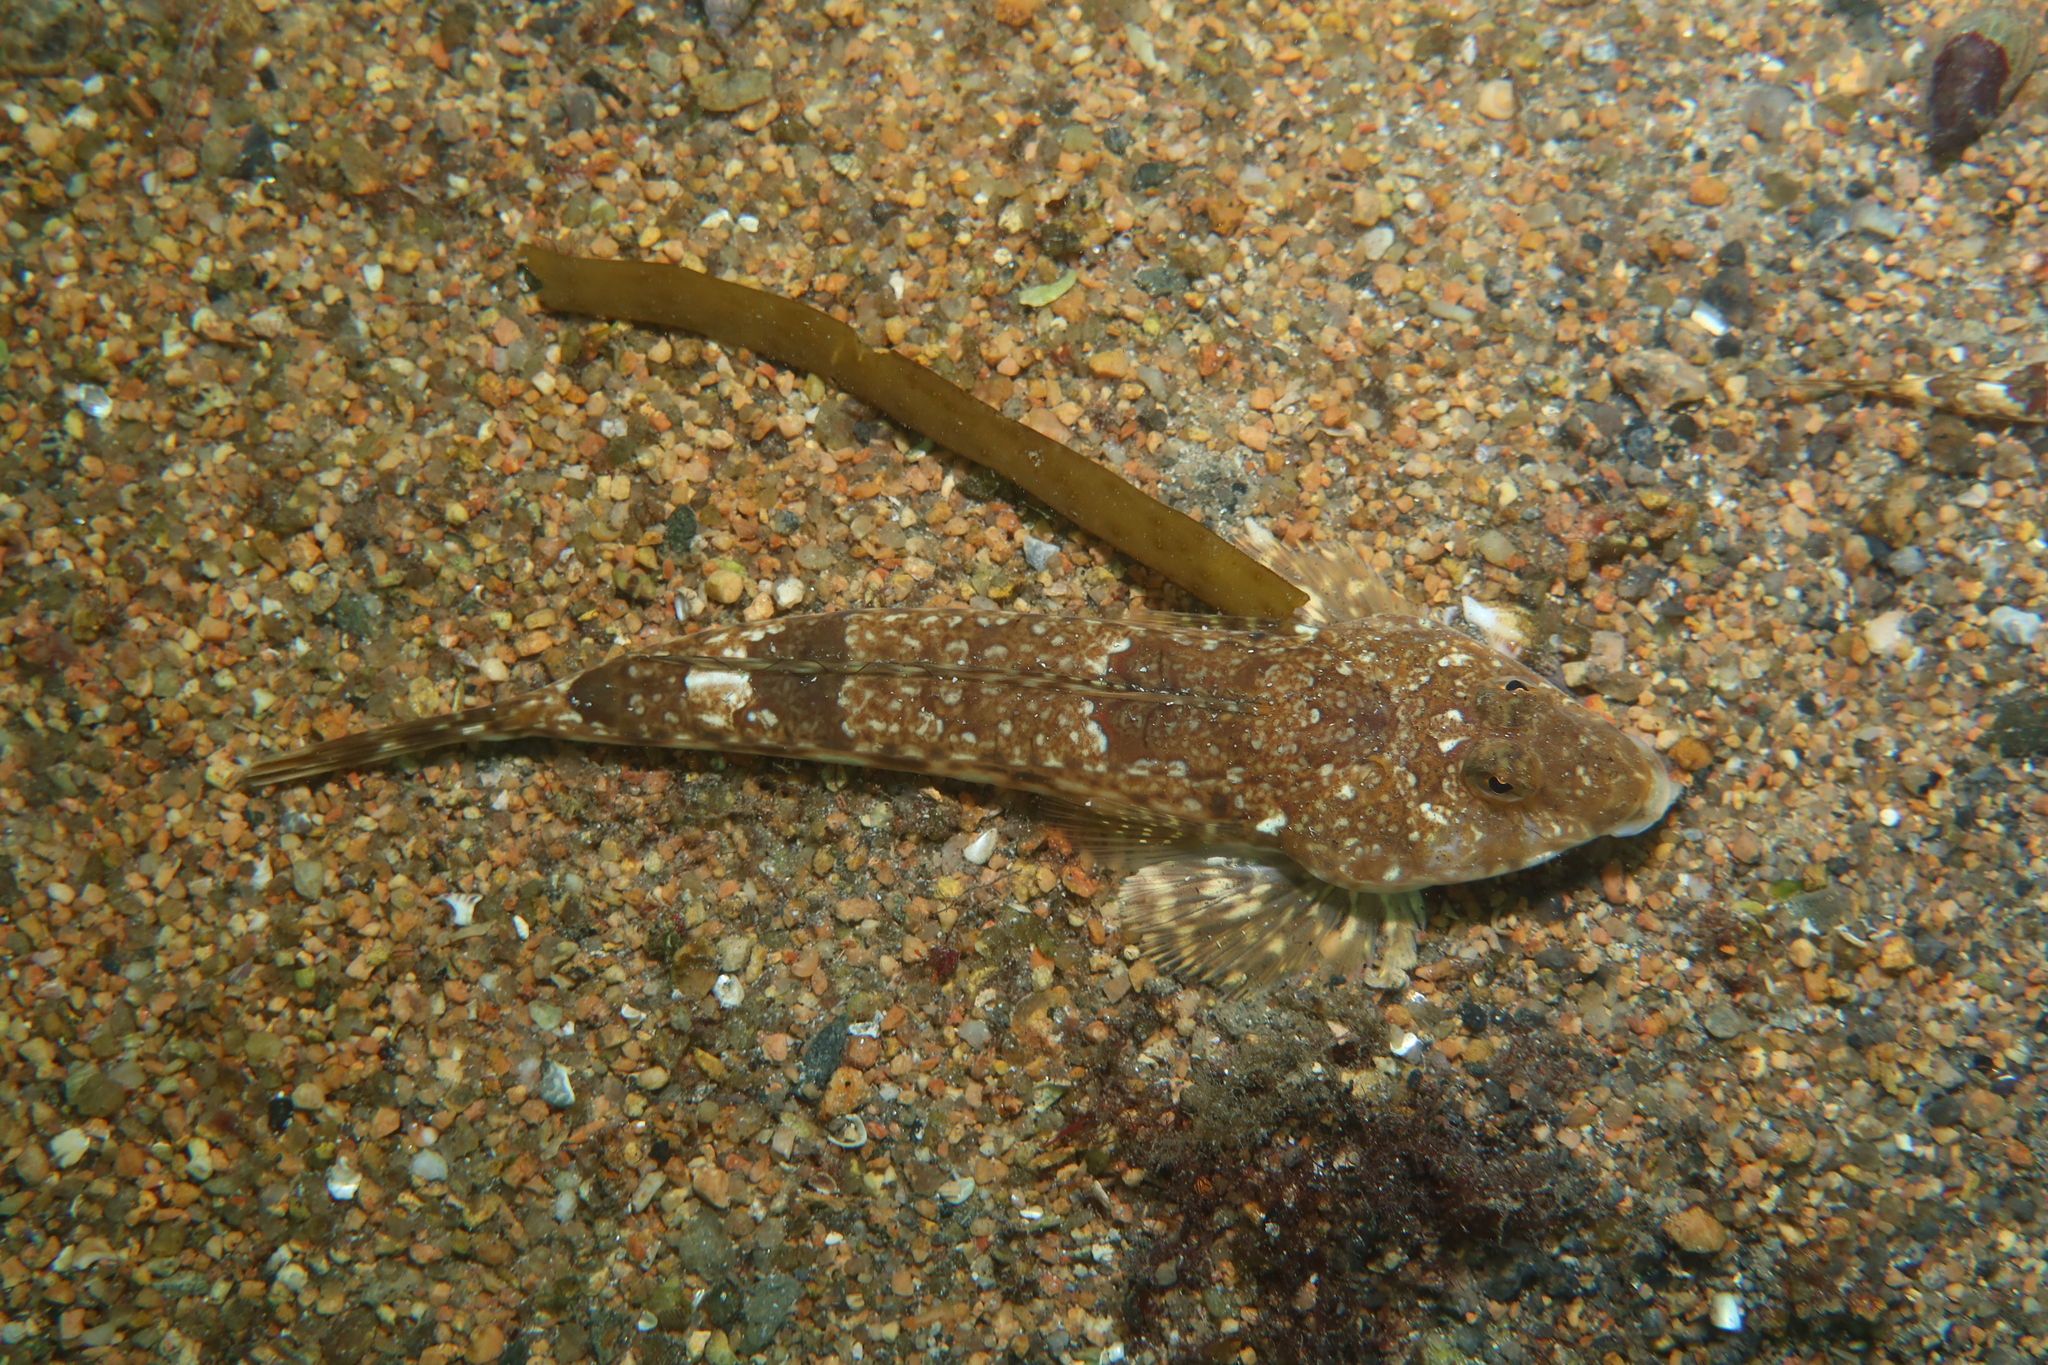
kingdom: Animalia
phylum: Chordata
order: Perciformes
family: Callionymidae
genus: Callionymus
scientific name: Callionymus lyra
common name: Dragonet
